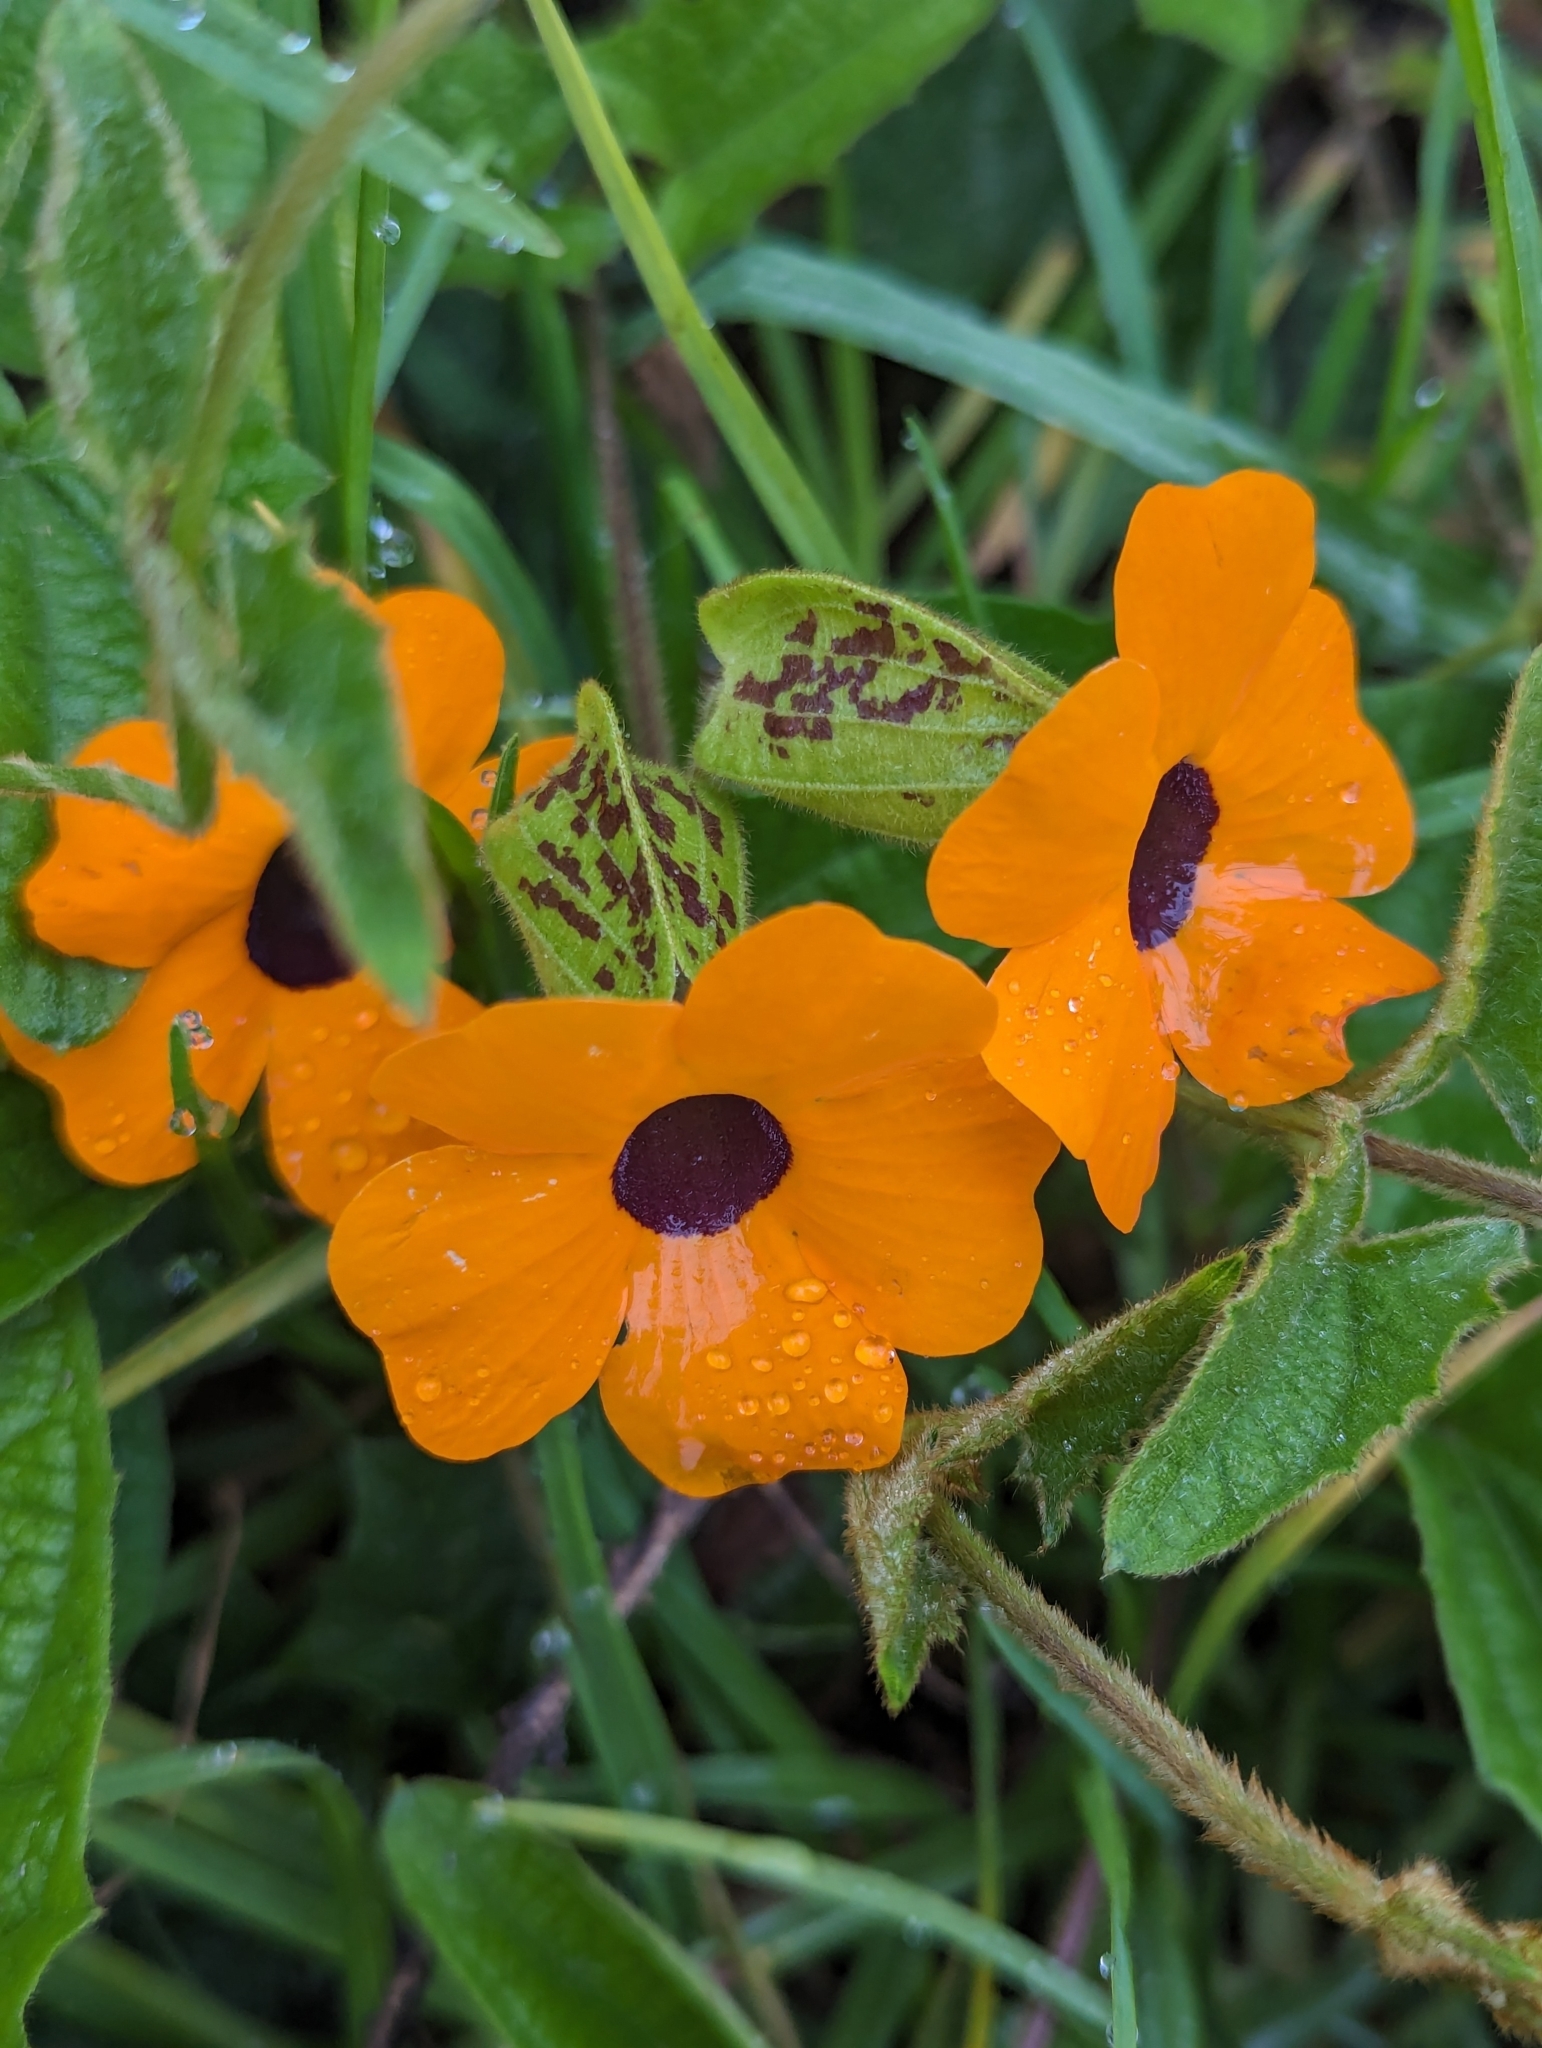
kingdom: Plantae
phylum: Tracheophyta
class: Magnoliopsida
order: Lamiales
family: Acanthaceae
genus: Thunbergia
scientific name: Thunbergia alata
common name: Blackeyed susan vine
